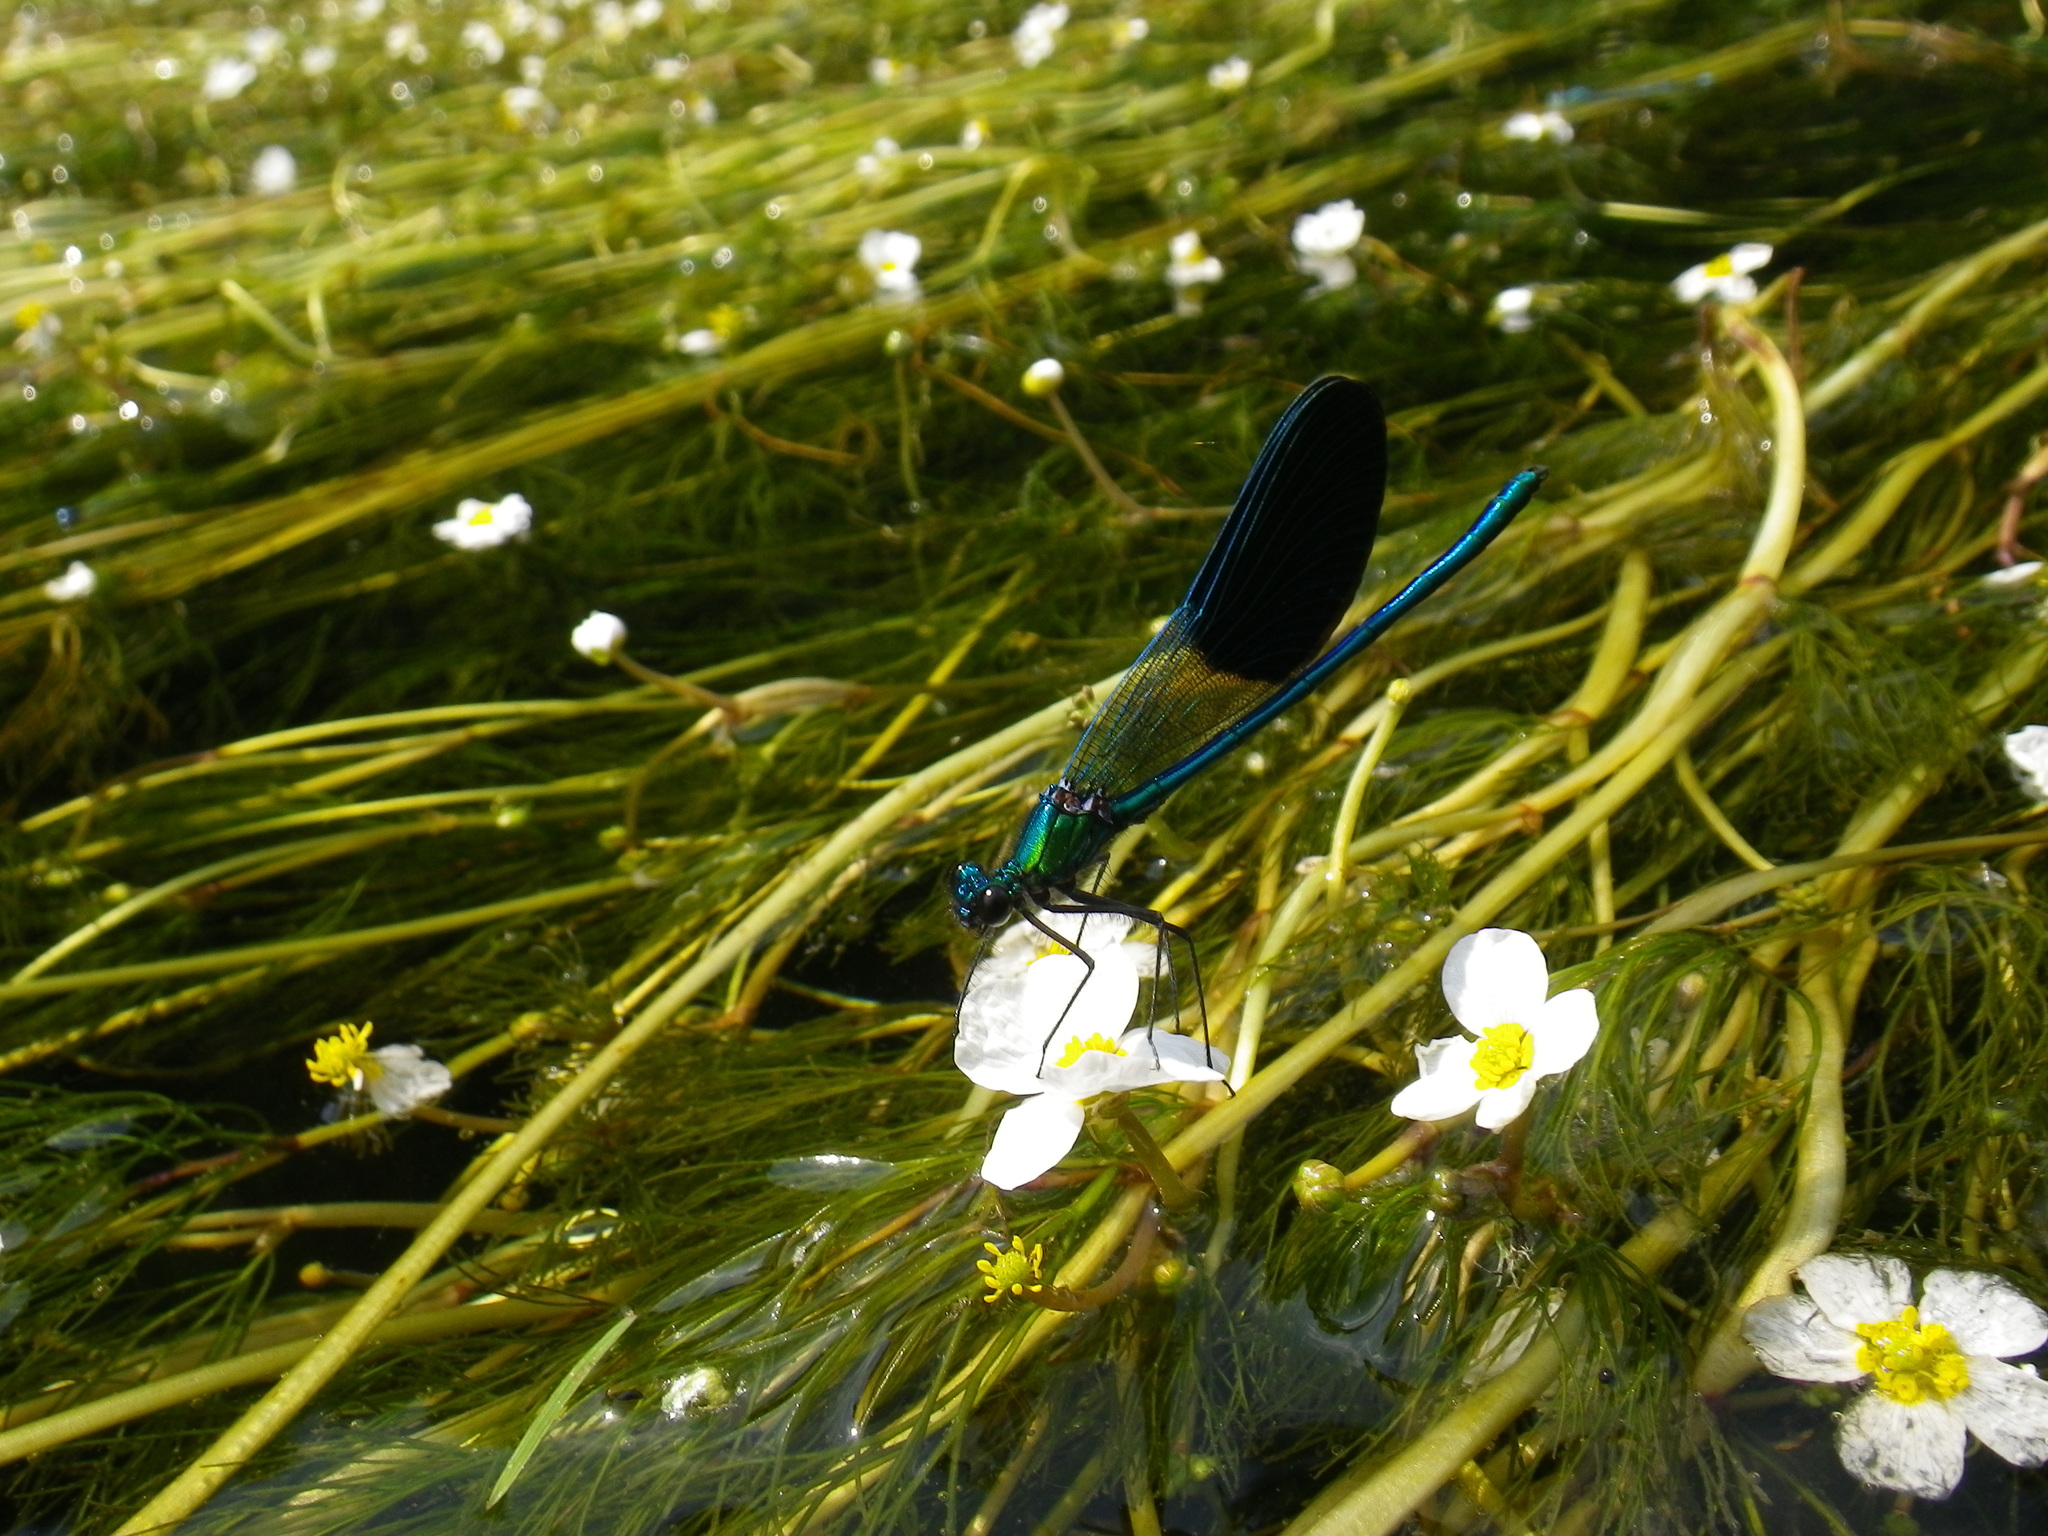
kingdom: Animalia
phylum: Arthropoda
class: Insecta
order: Odonata
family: Calopterygidae
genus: Calopteryx
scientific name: Calopteryx xanthostoma
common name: Western demoiselle
